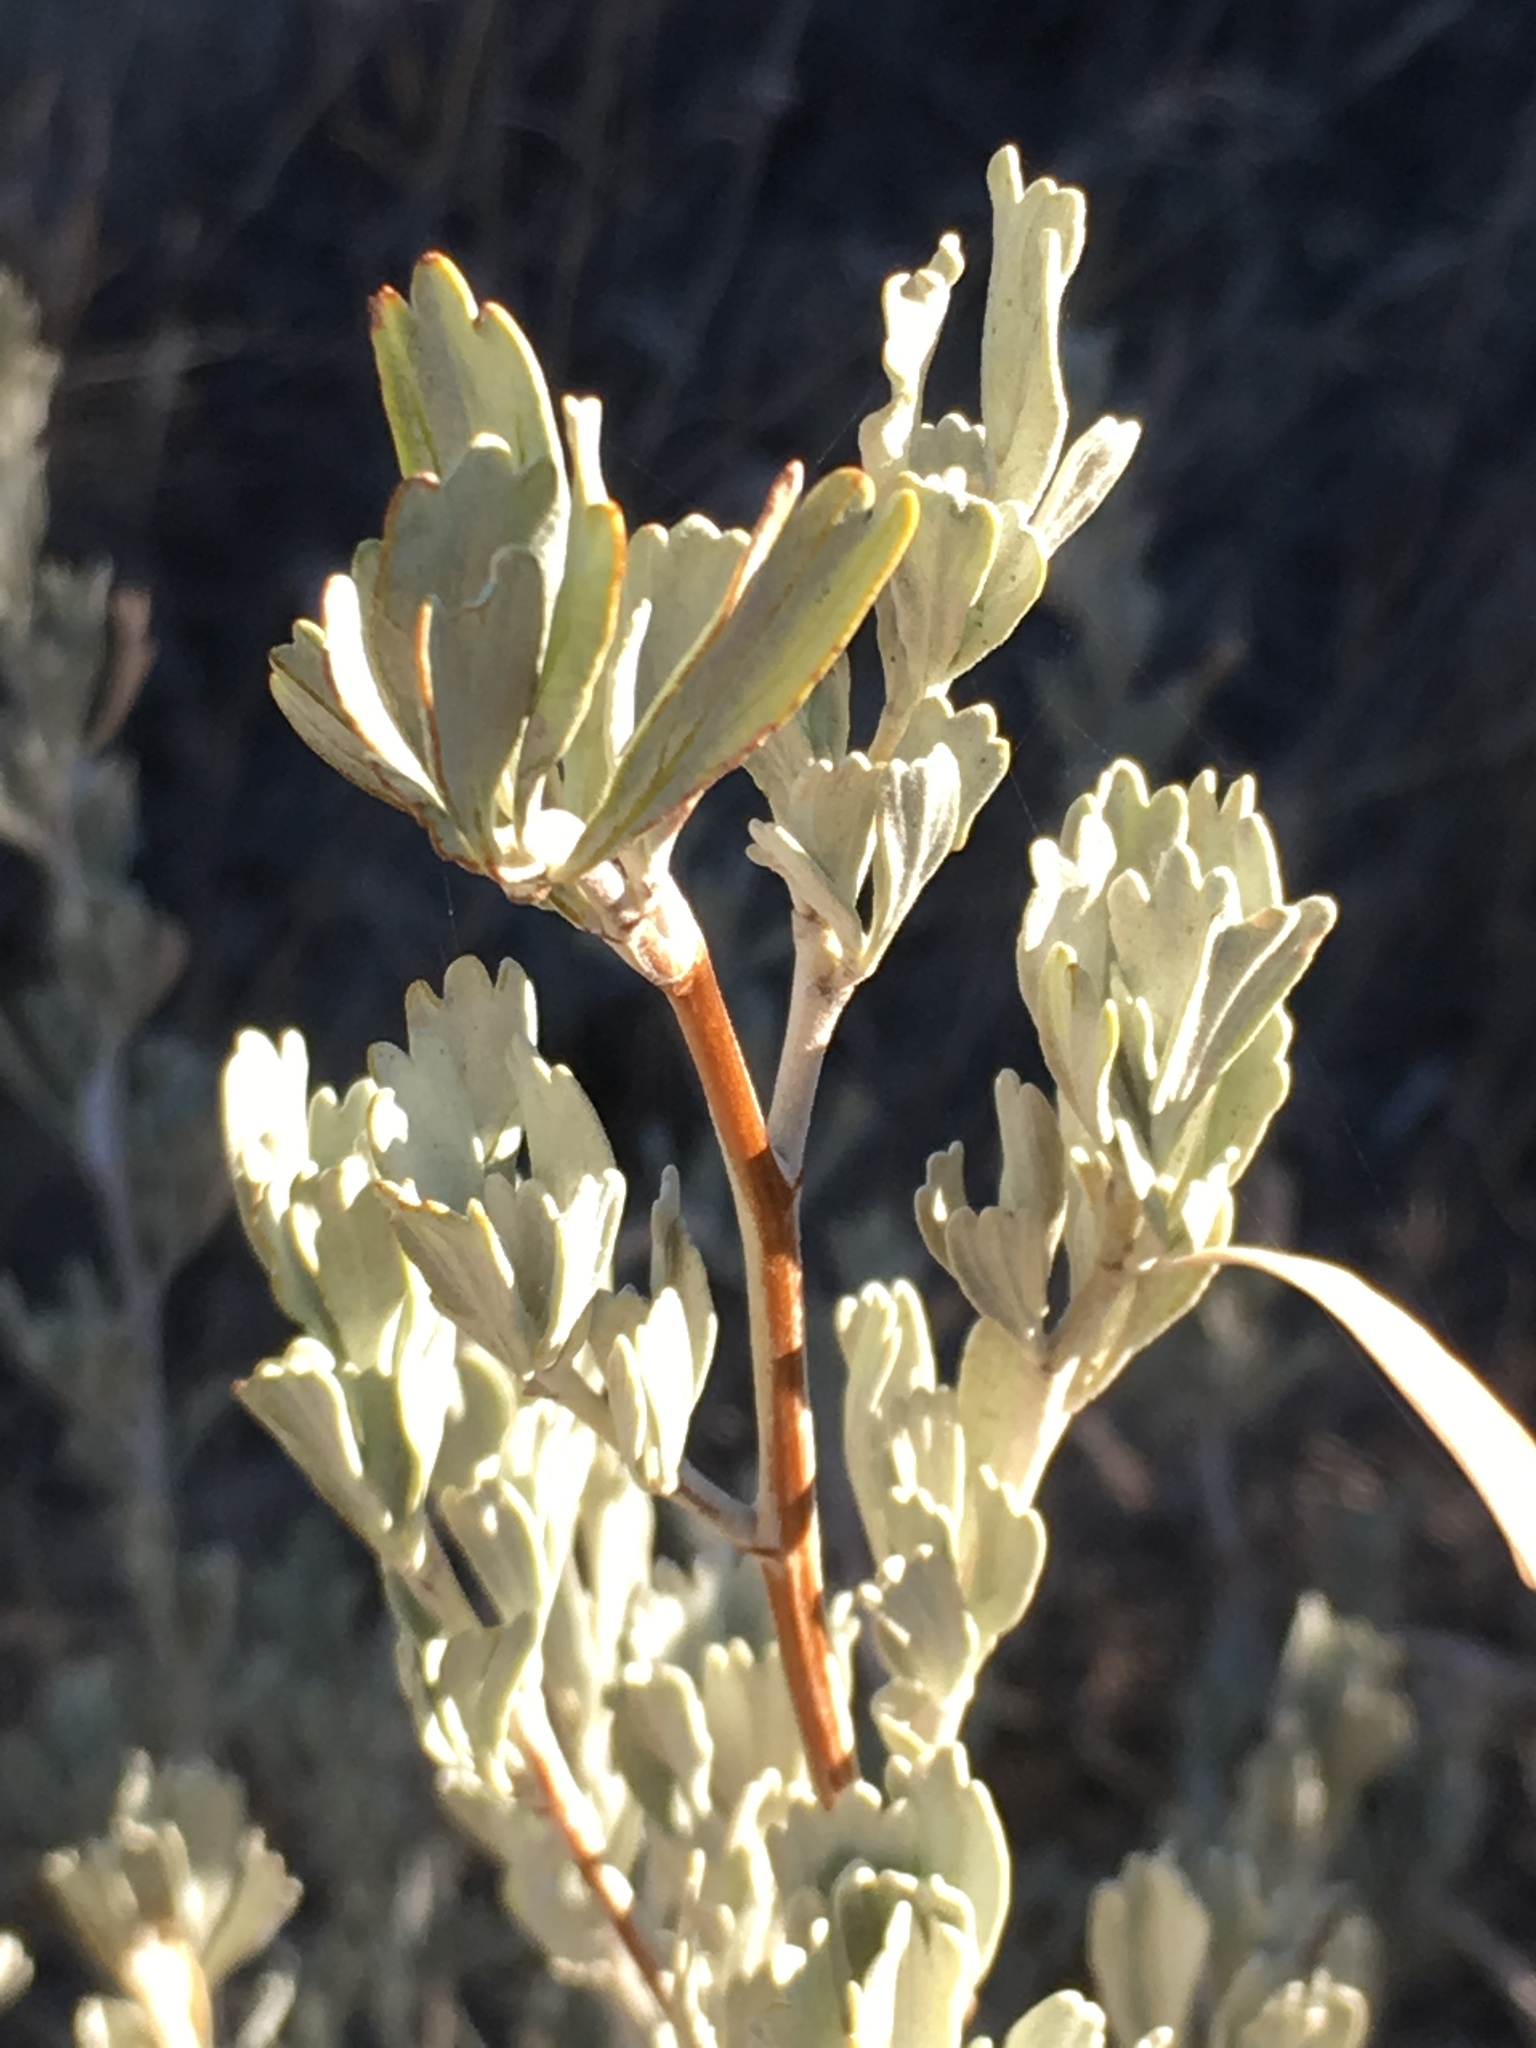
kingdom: Plantae
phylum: Tracheophyta
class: Magnoliopsida
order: Asterales
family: Asteraceae
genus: Artemisia
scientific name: Artemisia tridentata
